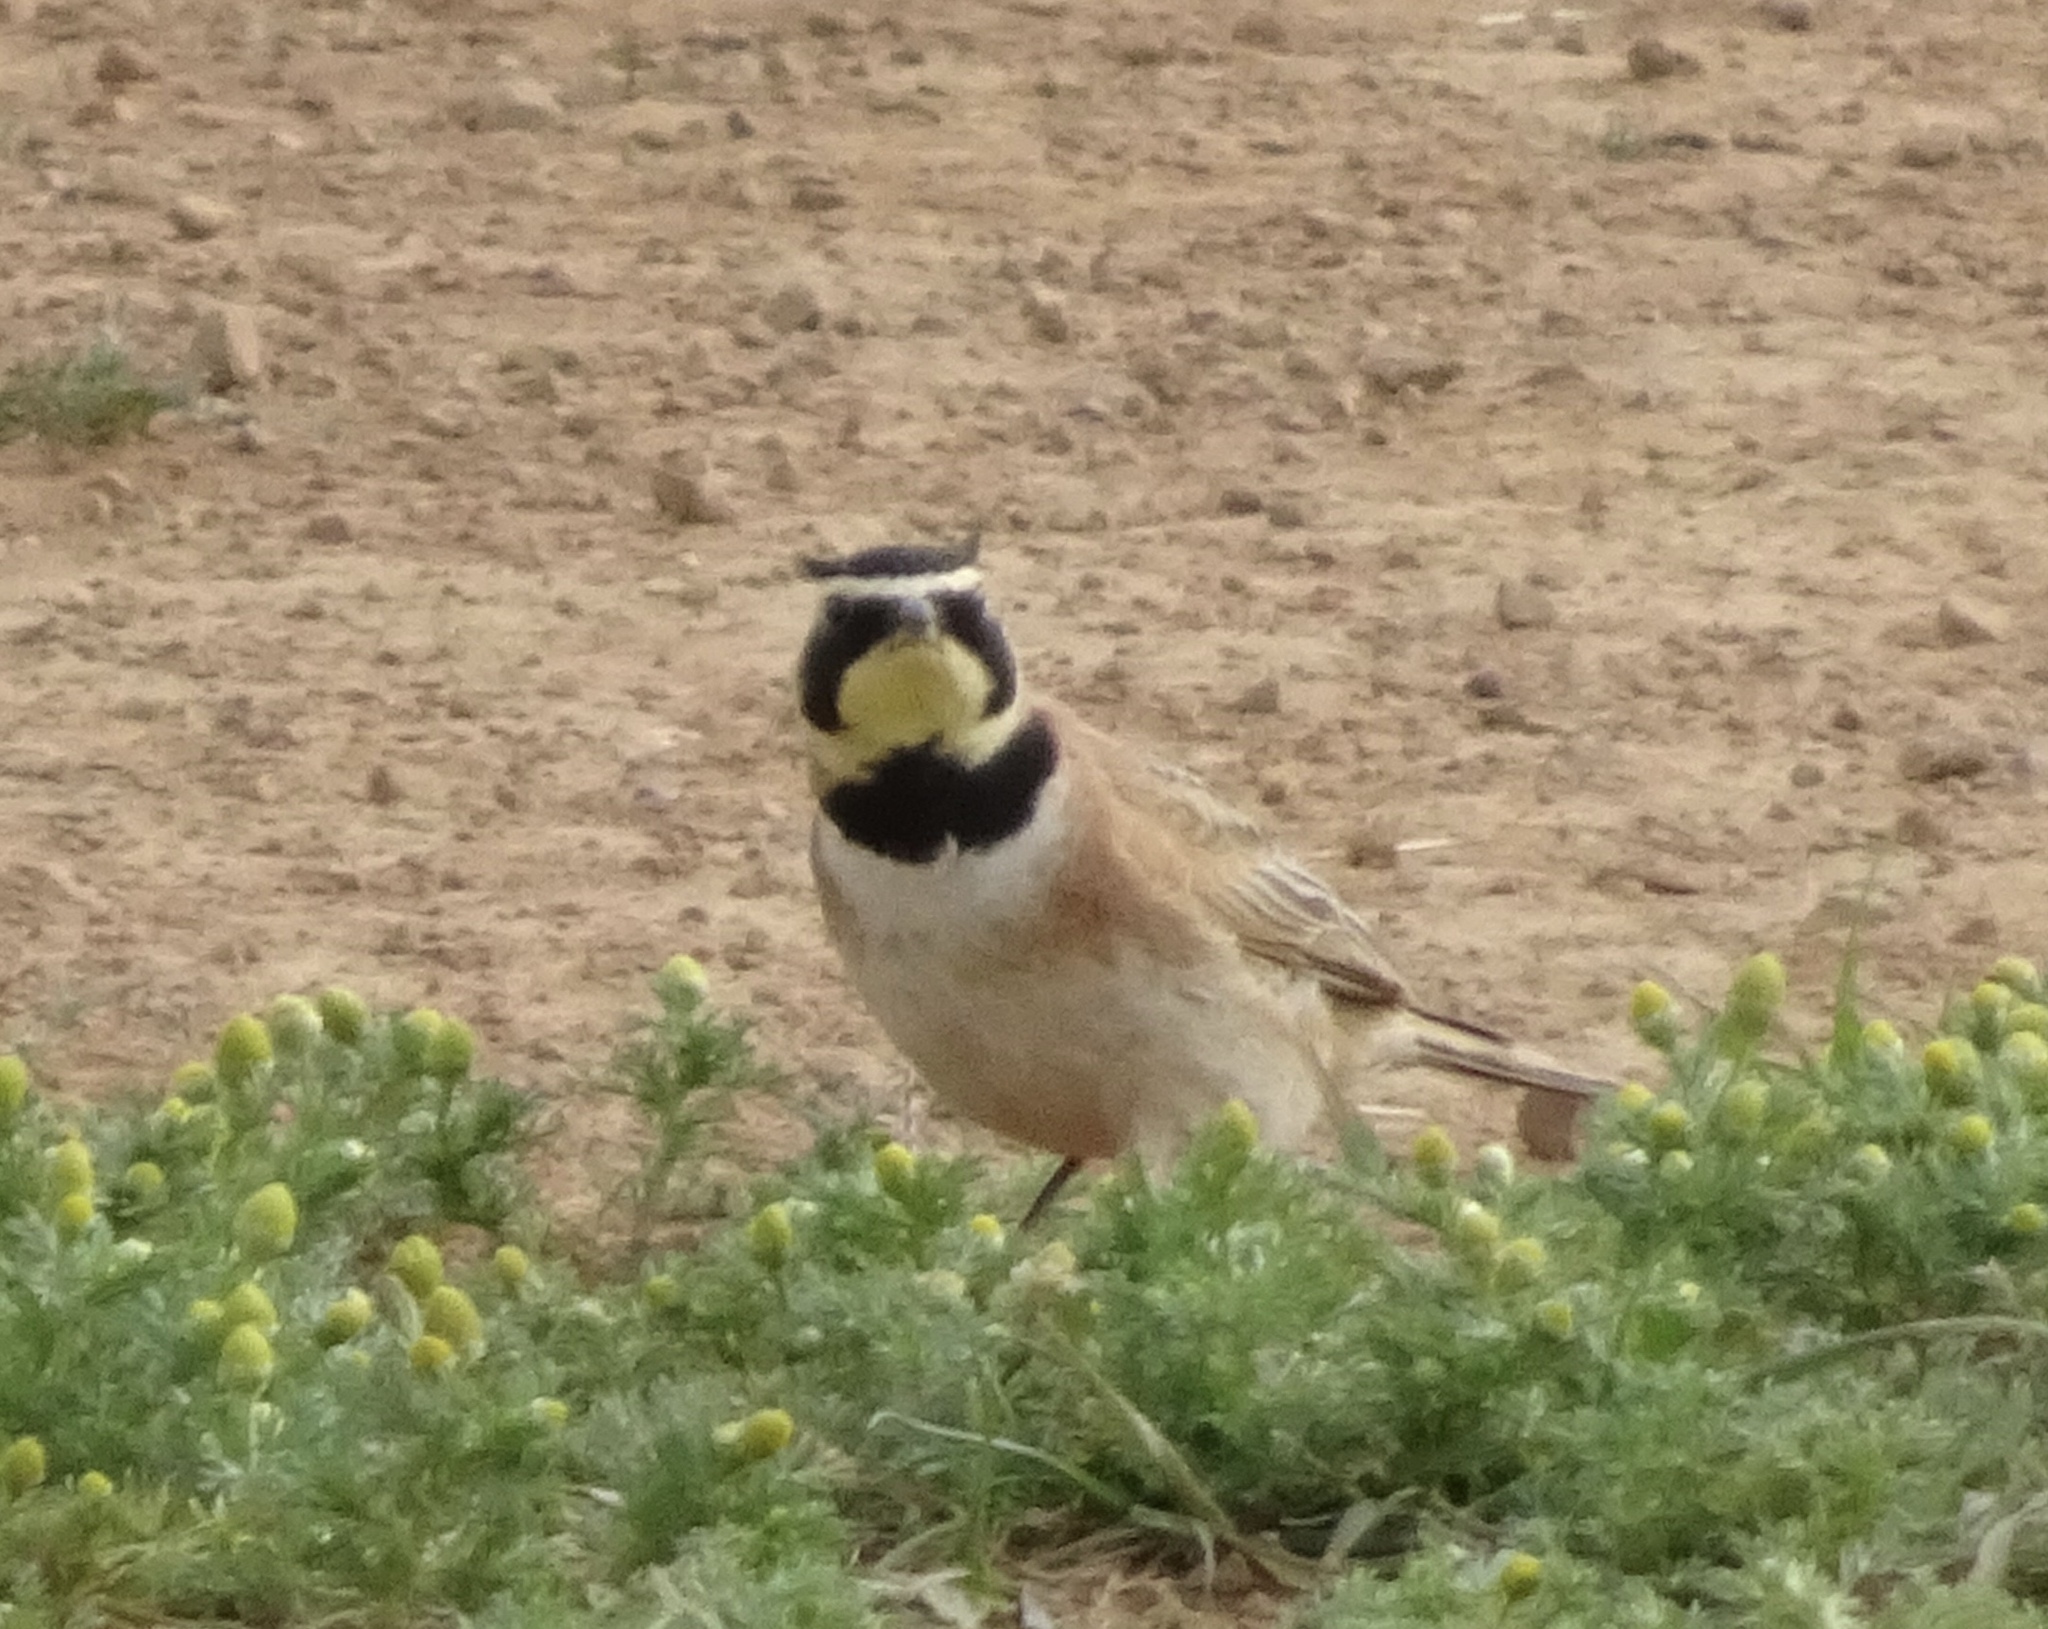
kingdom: Animalia
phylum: Chordata
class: Aves
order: Passeriformes
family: Alaudidae
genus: Eremophila
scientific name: Eremophila alpestris
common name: Horned lark
